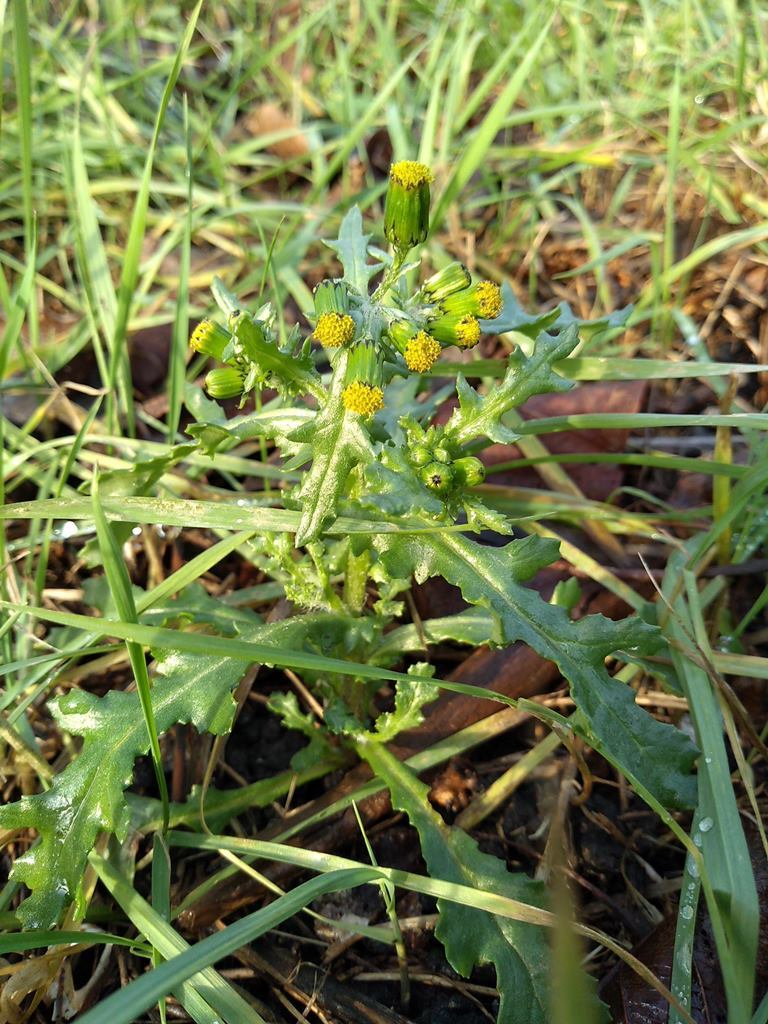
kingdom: Plantae
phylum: Tracheophyta
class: Magnoliopsida
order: Asterales
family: Asteraceae
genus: Senecio
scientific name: Senecio vulgaris
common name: Old-man-in-the-spring
